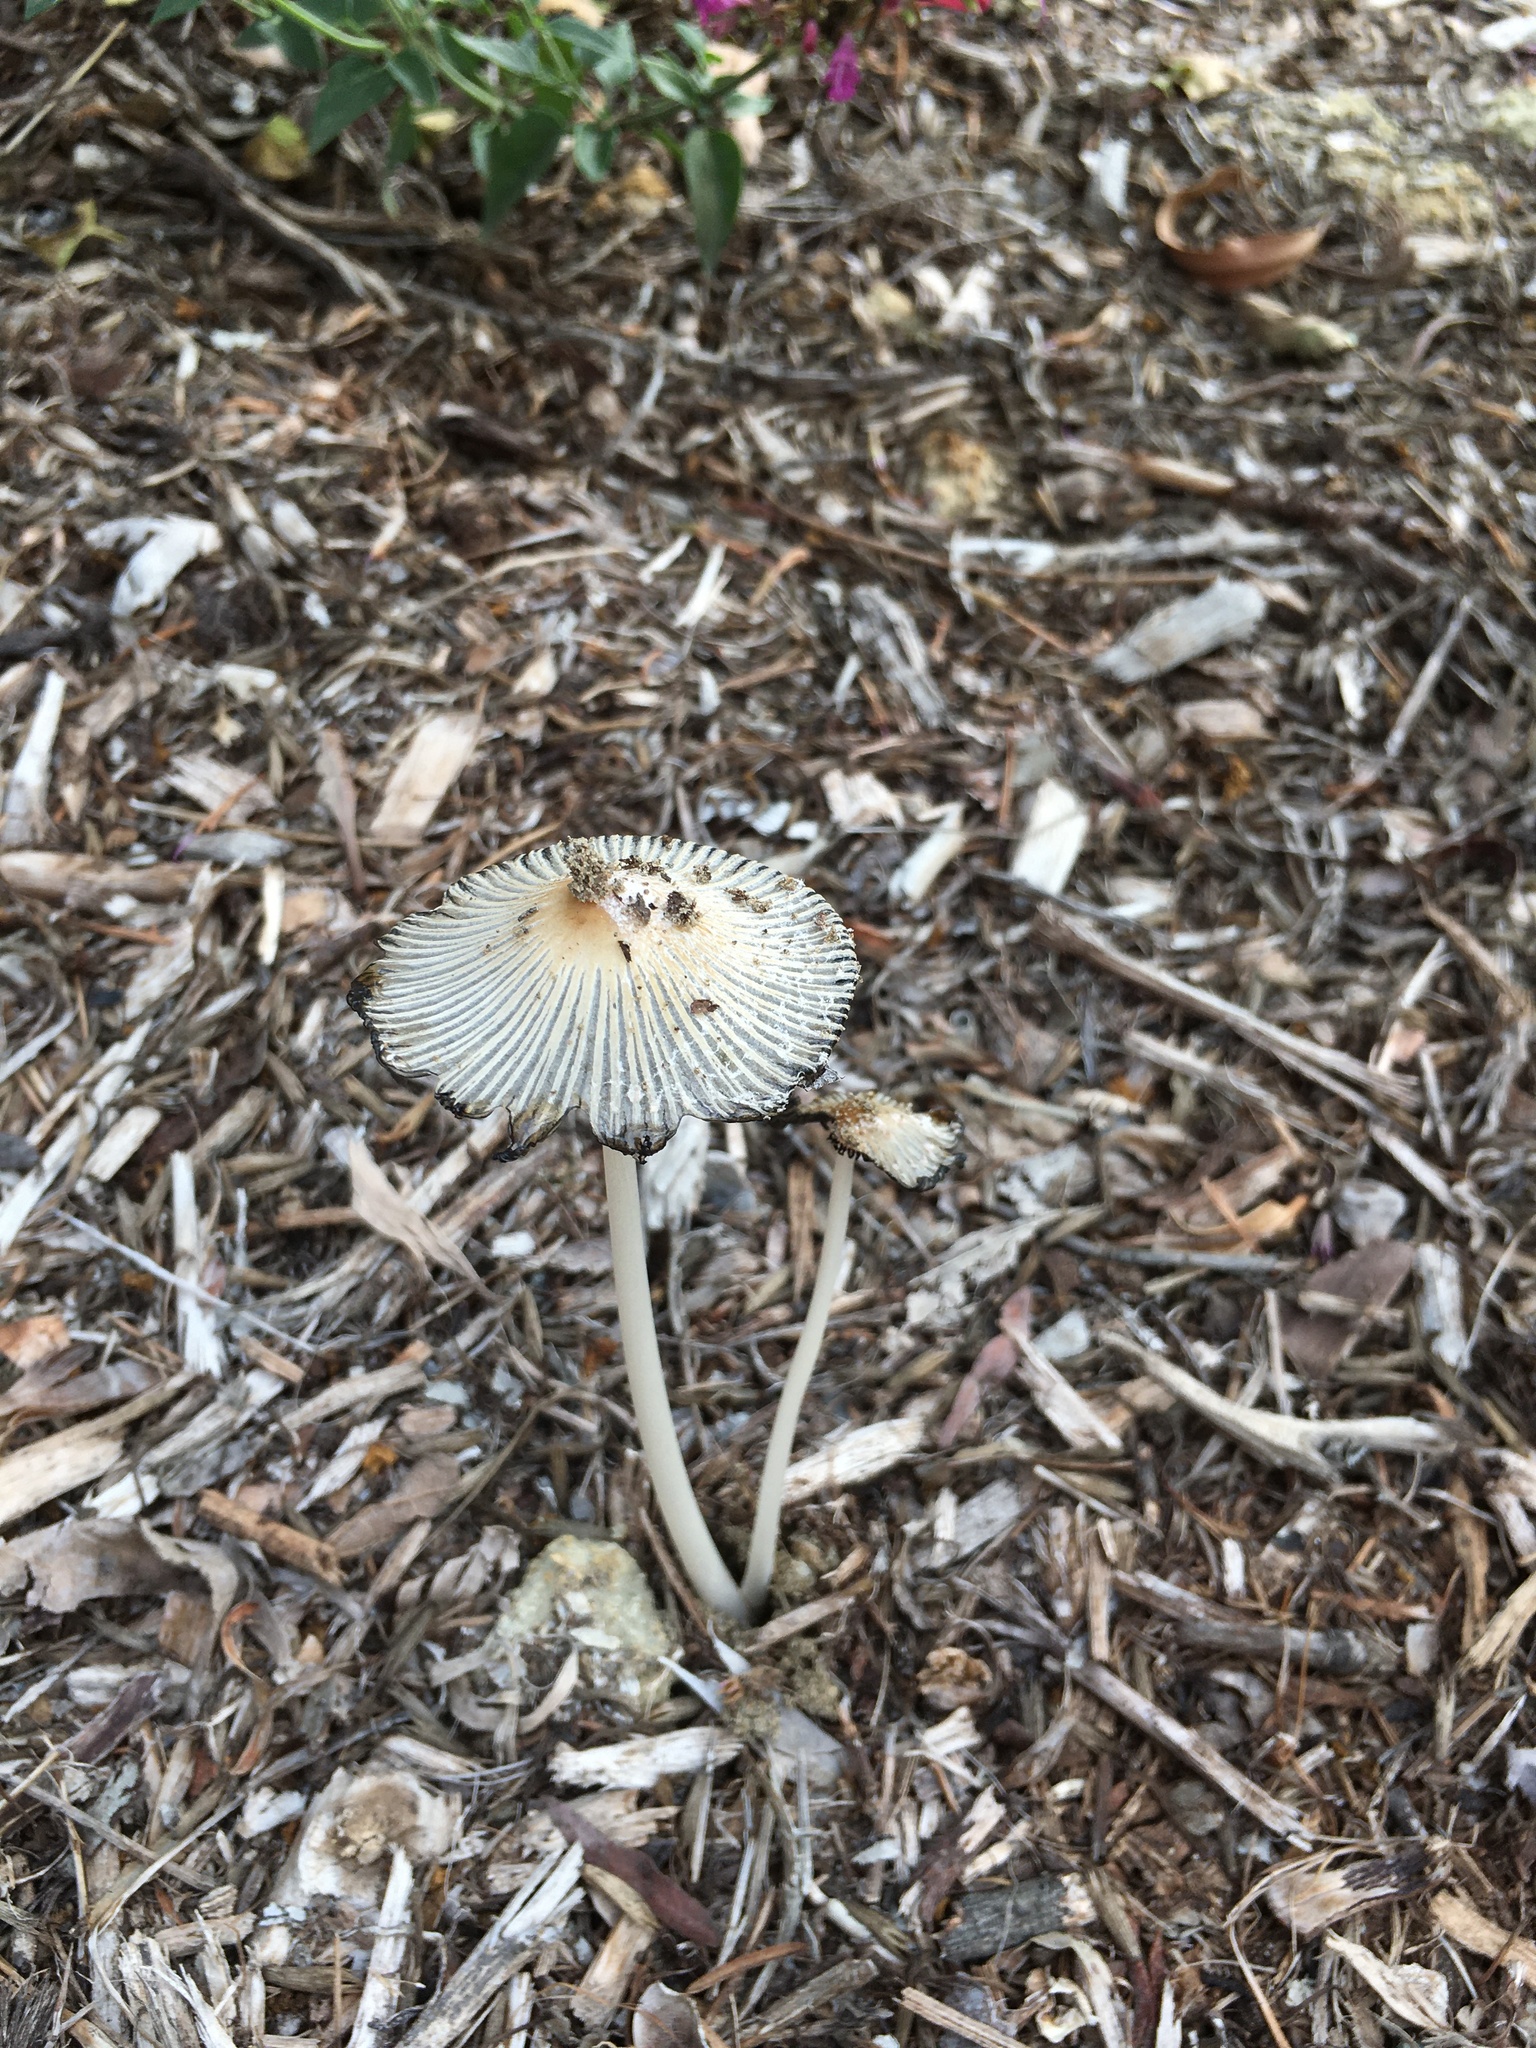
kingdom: Fungi
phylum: Basidiomycota
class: Agaricomycetes
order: Agaricales
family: Psathyrellaceae
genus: Coprinopsis
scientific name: Coprinopsis lagopus
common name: Hare'sfoot inkcap
